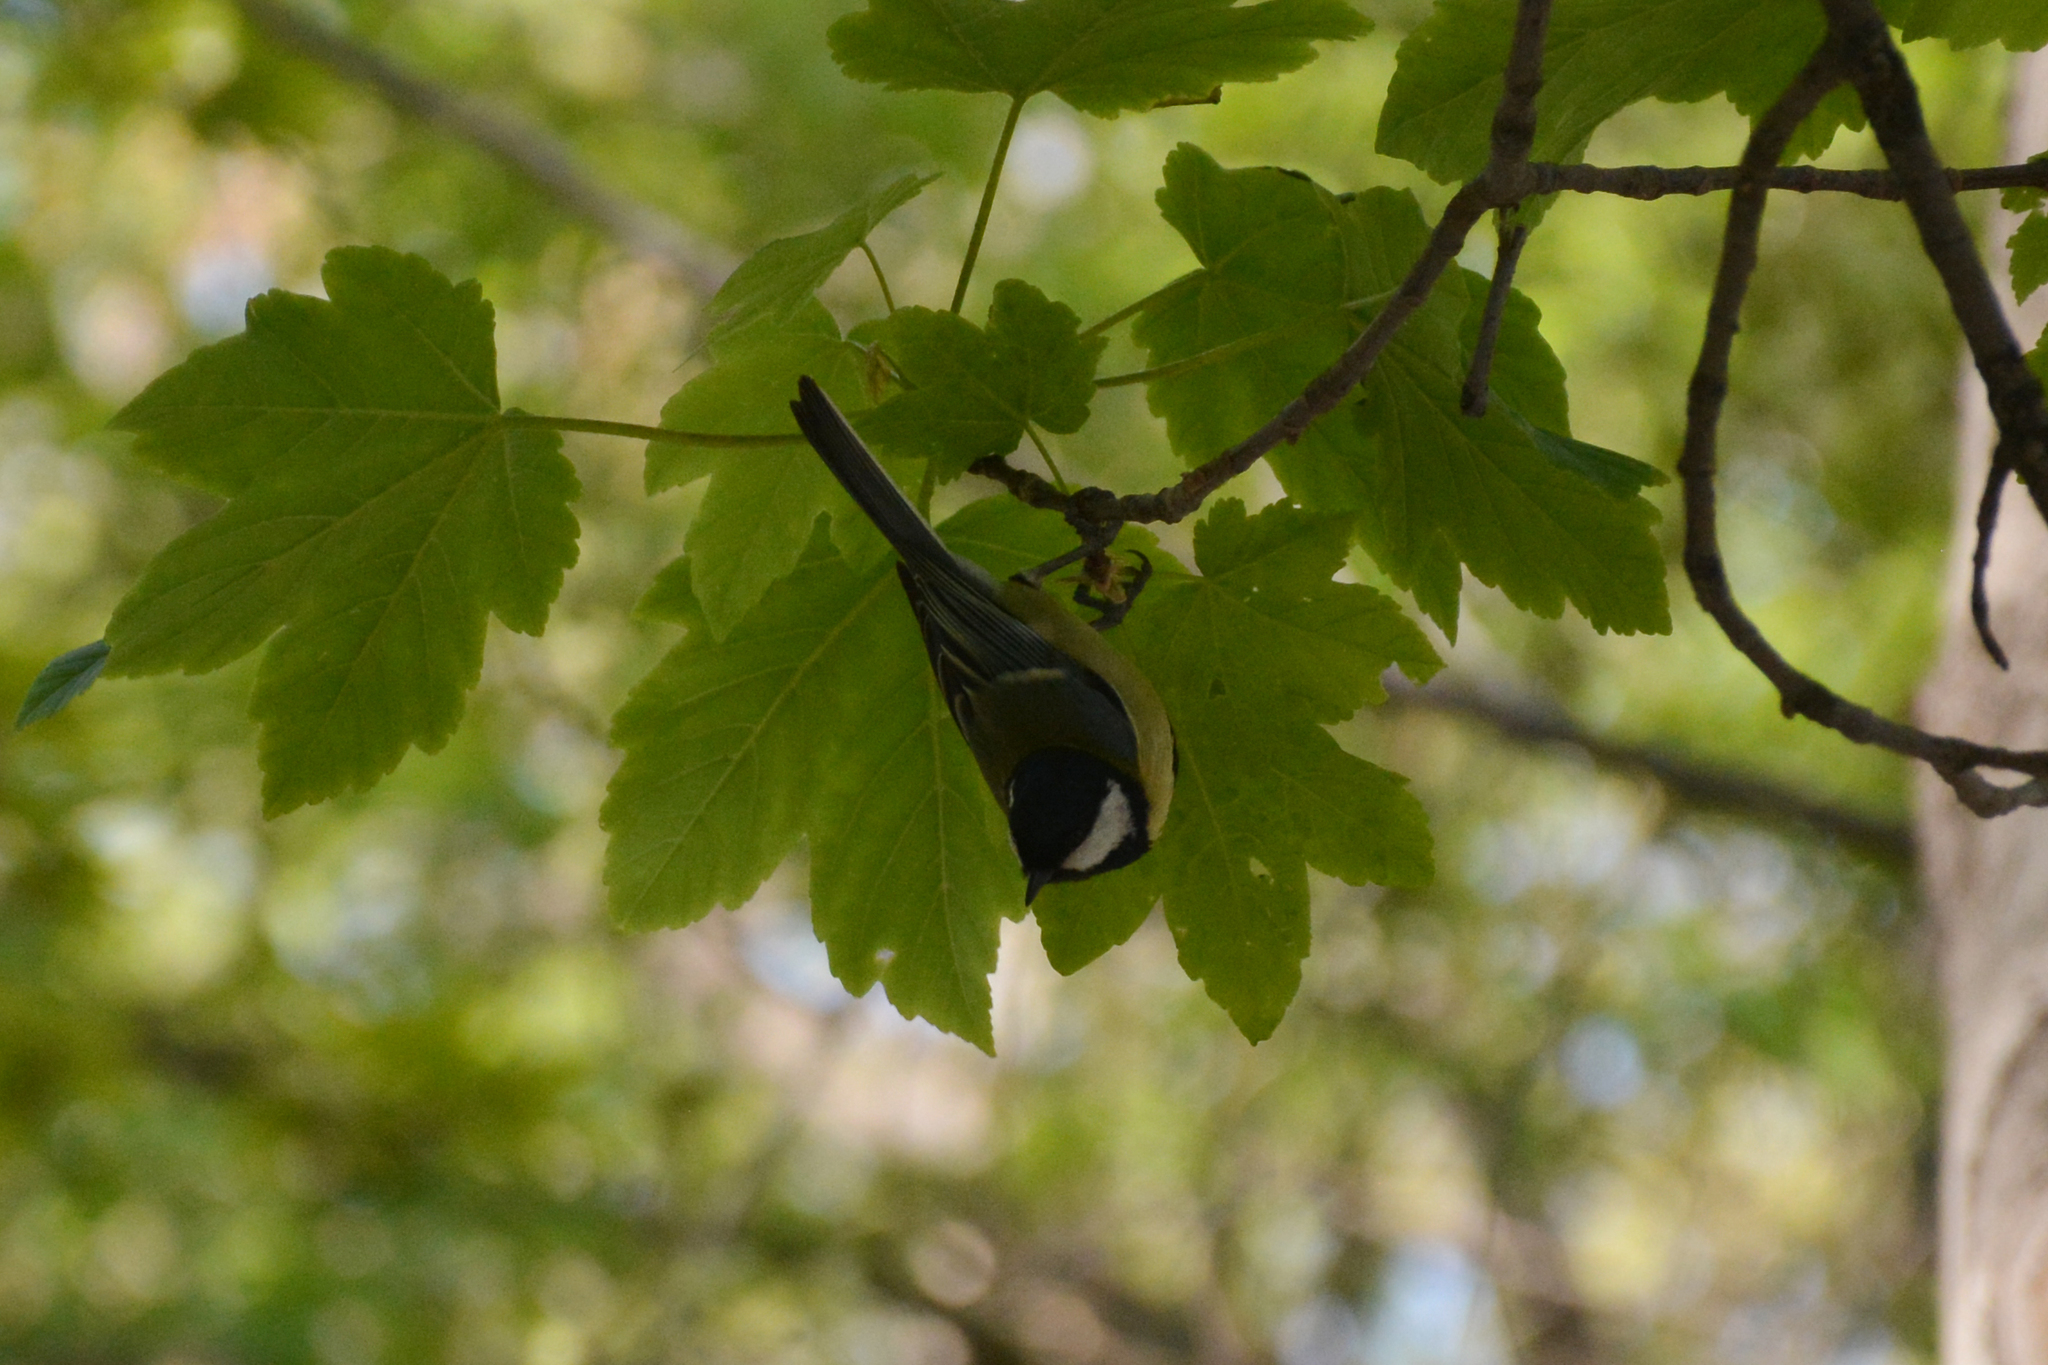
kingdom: Animalia
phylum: Chordata
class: Aves
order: Passeriformes
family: Paridae
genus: Parus
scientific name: Parus major
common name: Great tit
